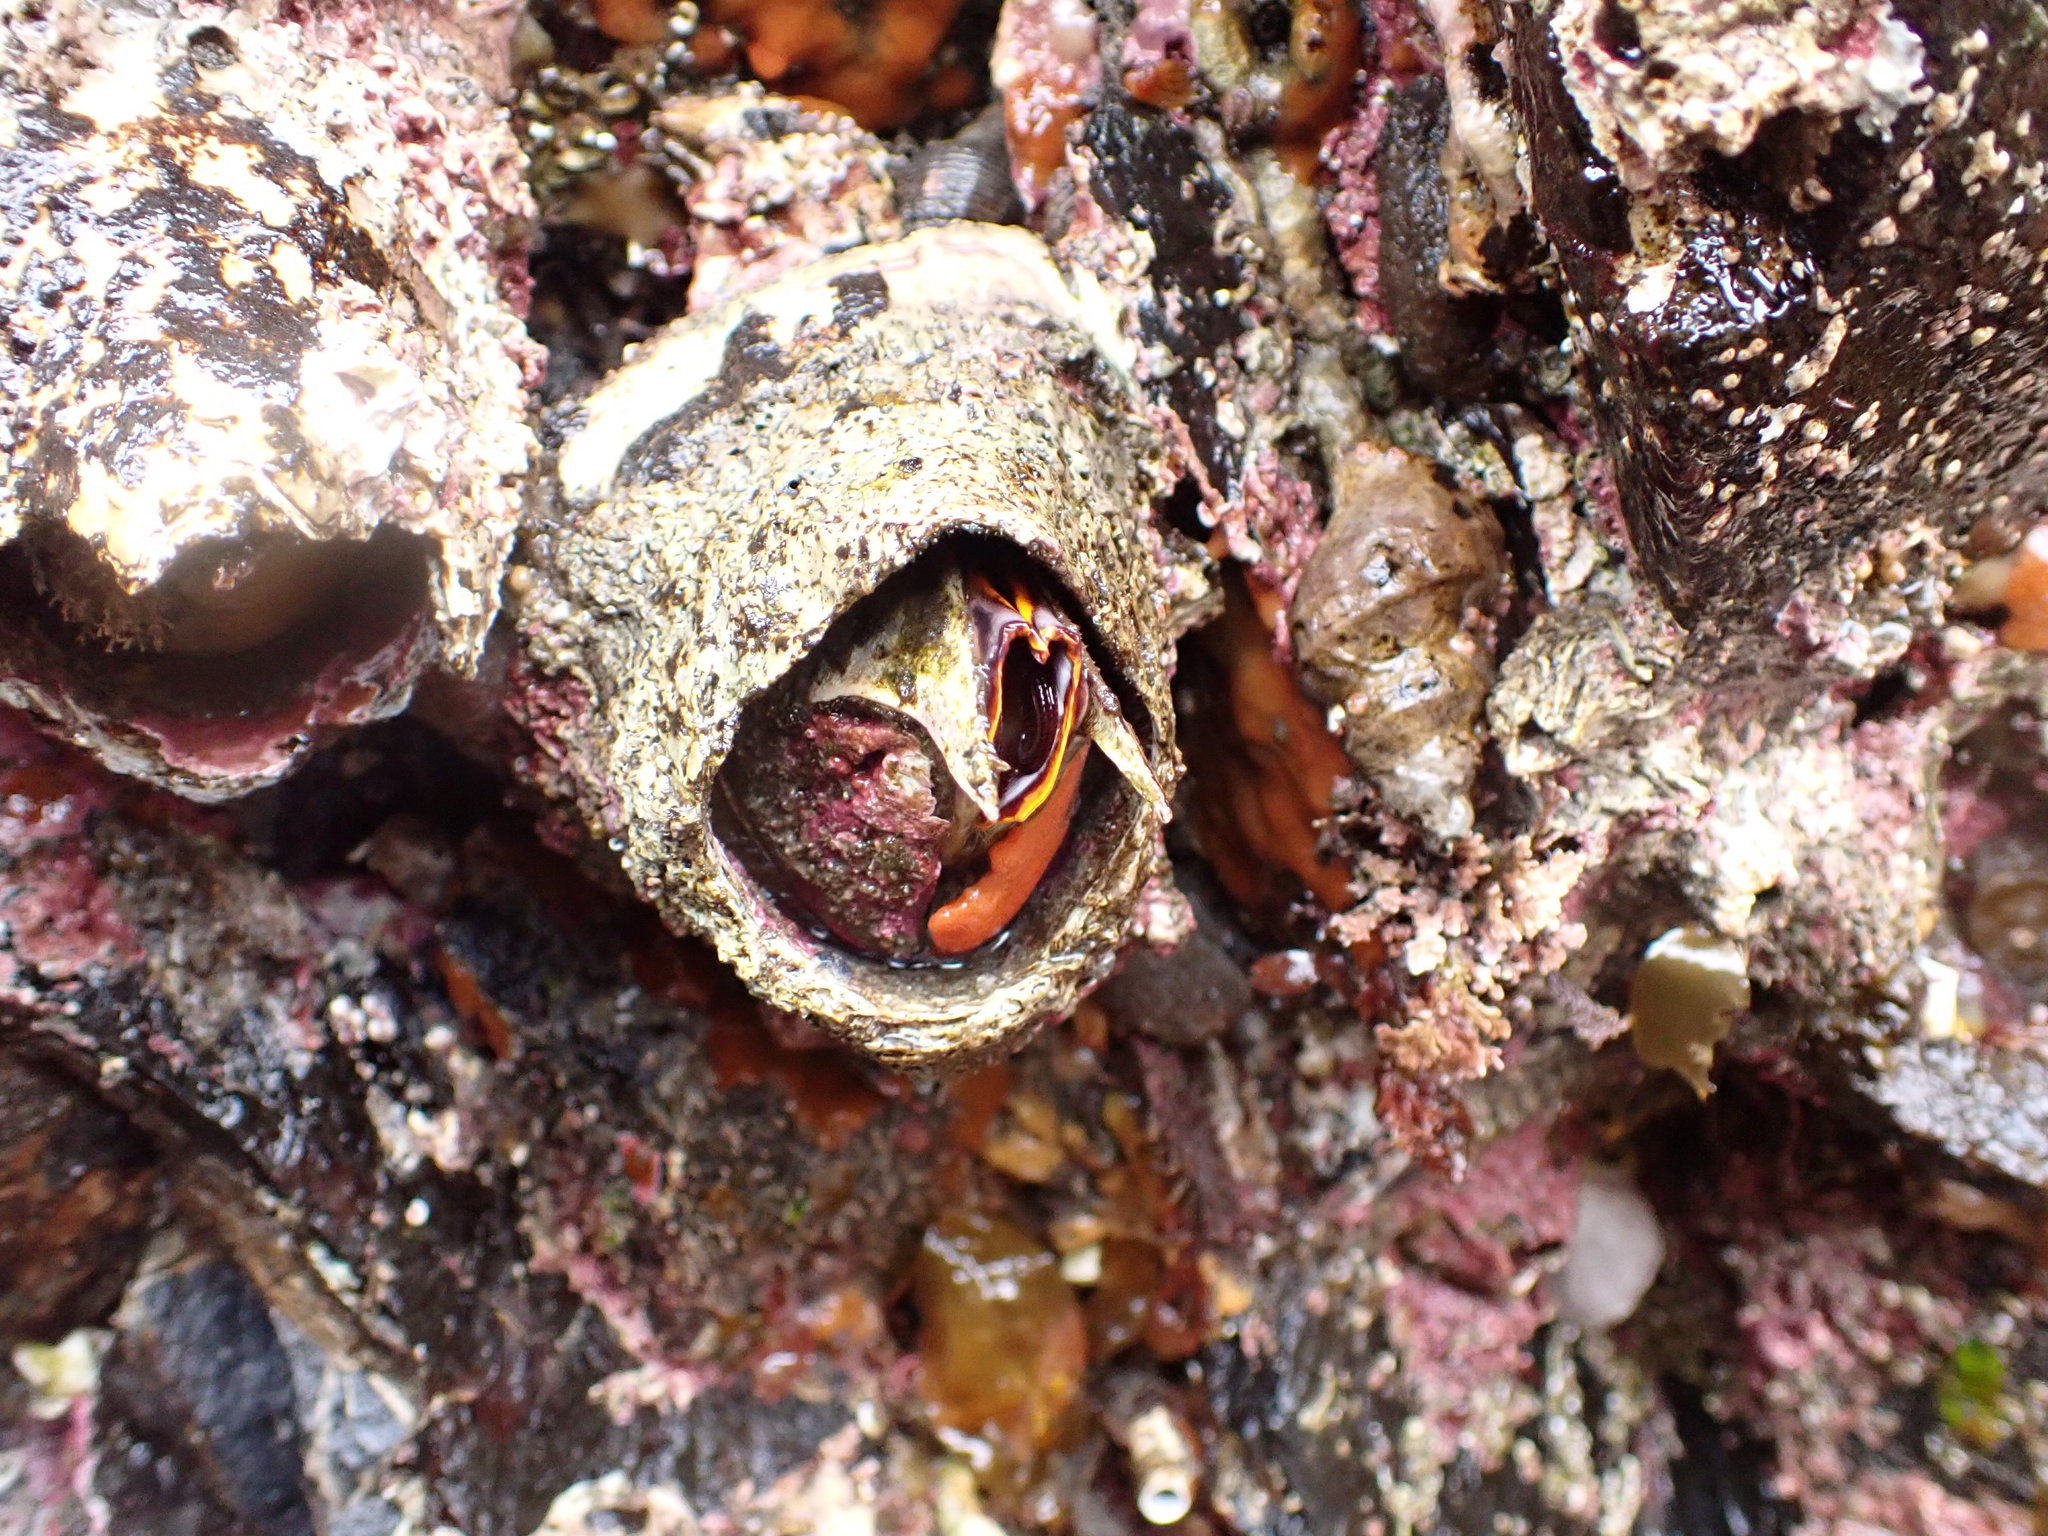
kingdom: Animalia
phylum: Arthropoda
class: Maxillopoda
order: Sessilia
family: Balanidae
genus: Balanus
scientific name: Balanus nubilus
